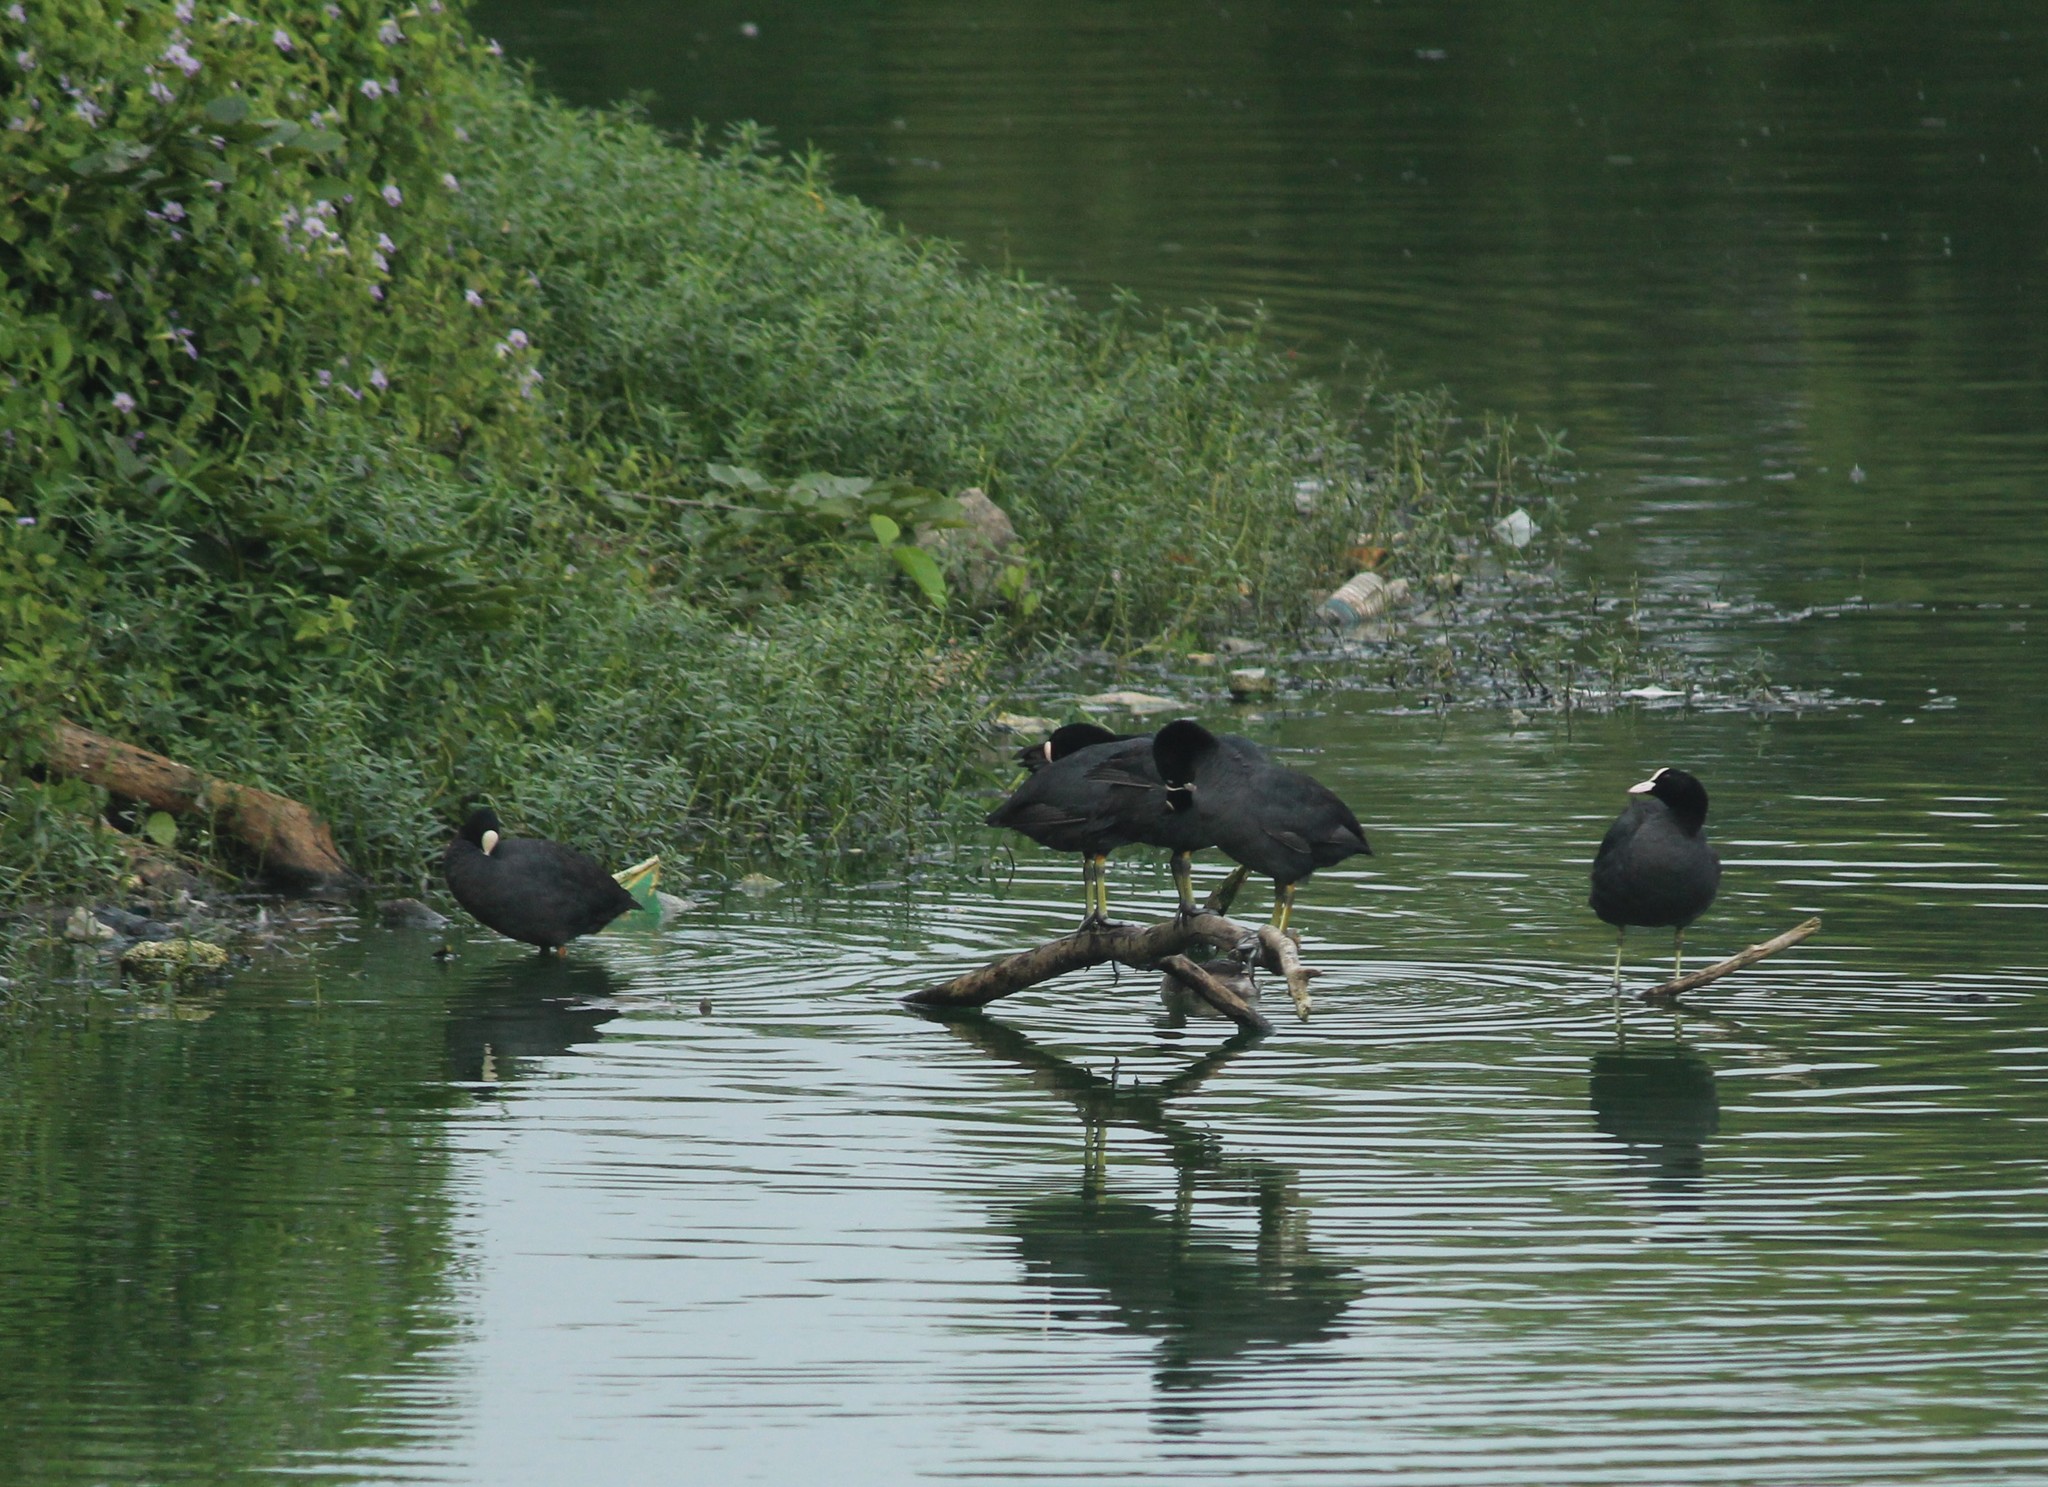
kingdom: Animalia
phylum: Chordata
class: Aves
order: Gruiformes
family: Rallidae
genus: Fulica
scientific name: Fulica atra
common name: Eurasian coot
